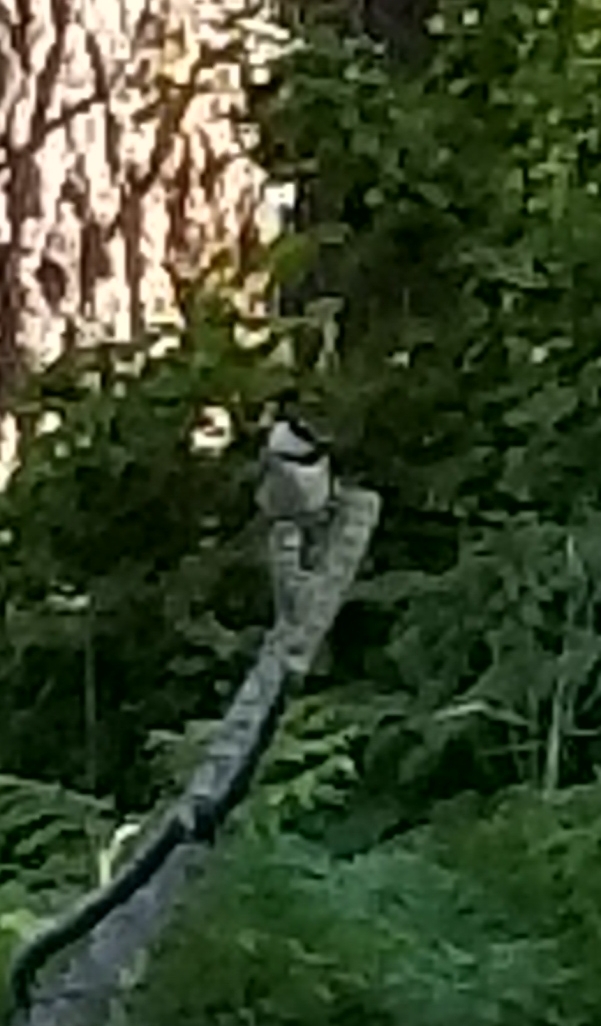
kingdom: Animalia
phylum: Chordata
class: Aves
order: Passeriformes
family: Paridae
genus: Poecile
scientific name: Poecile gambeli
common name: Mountain chickadee
